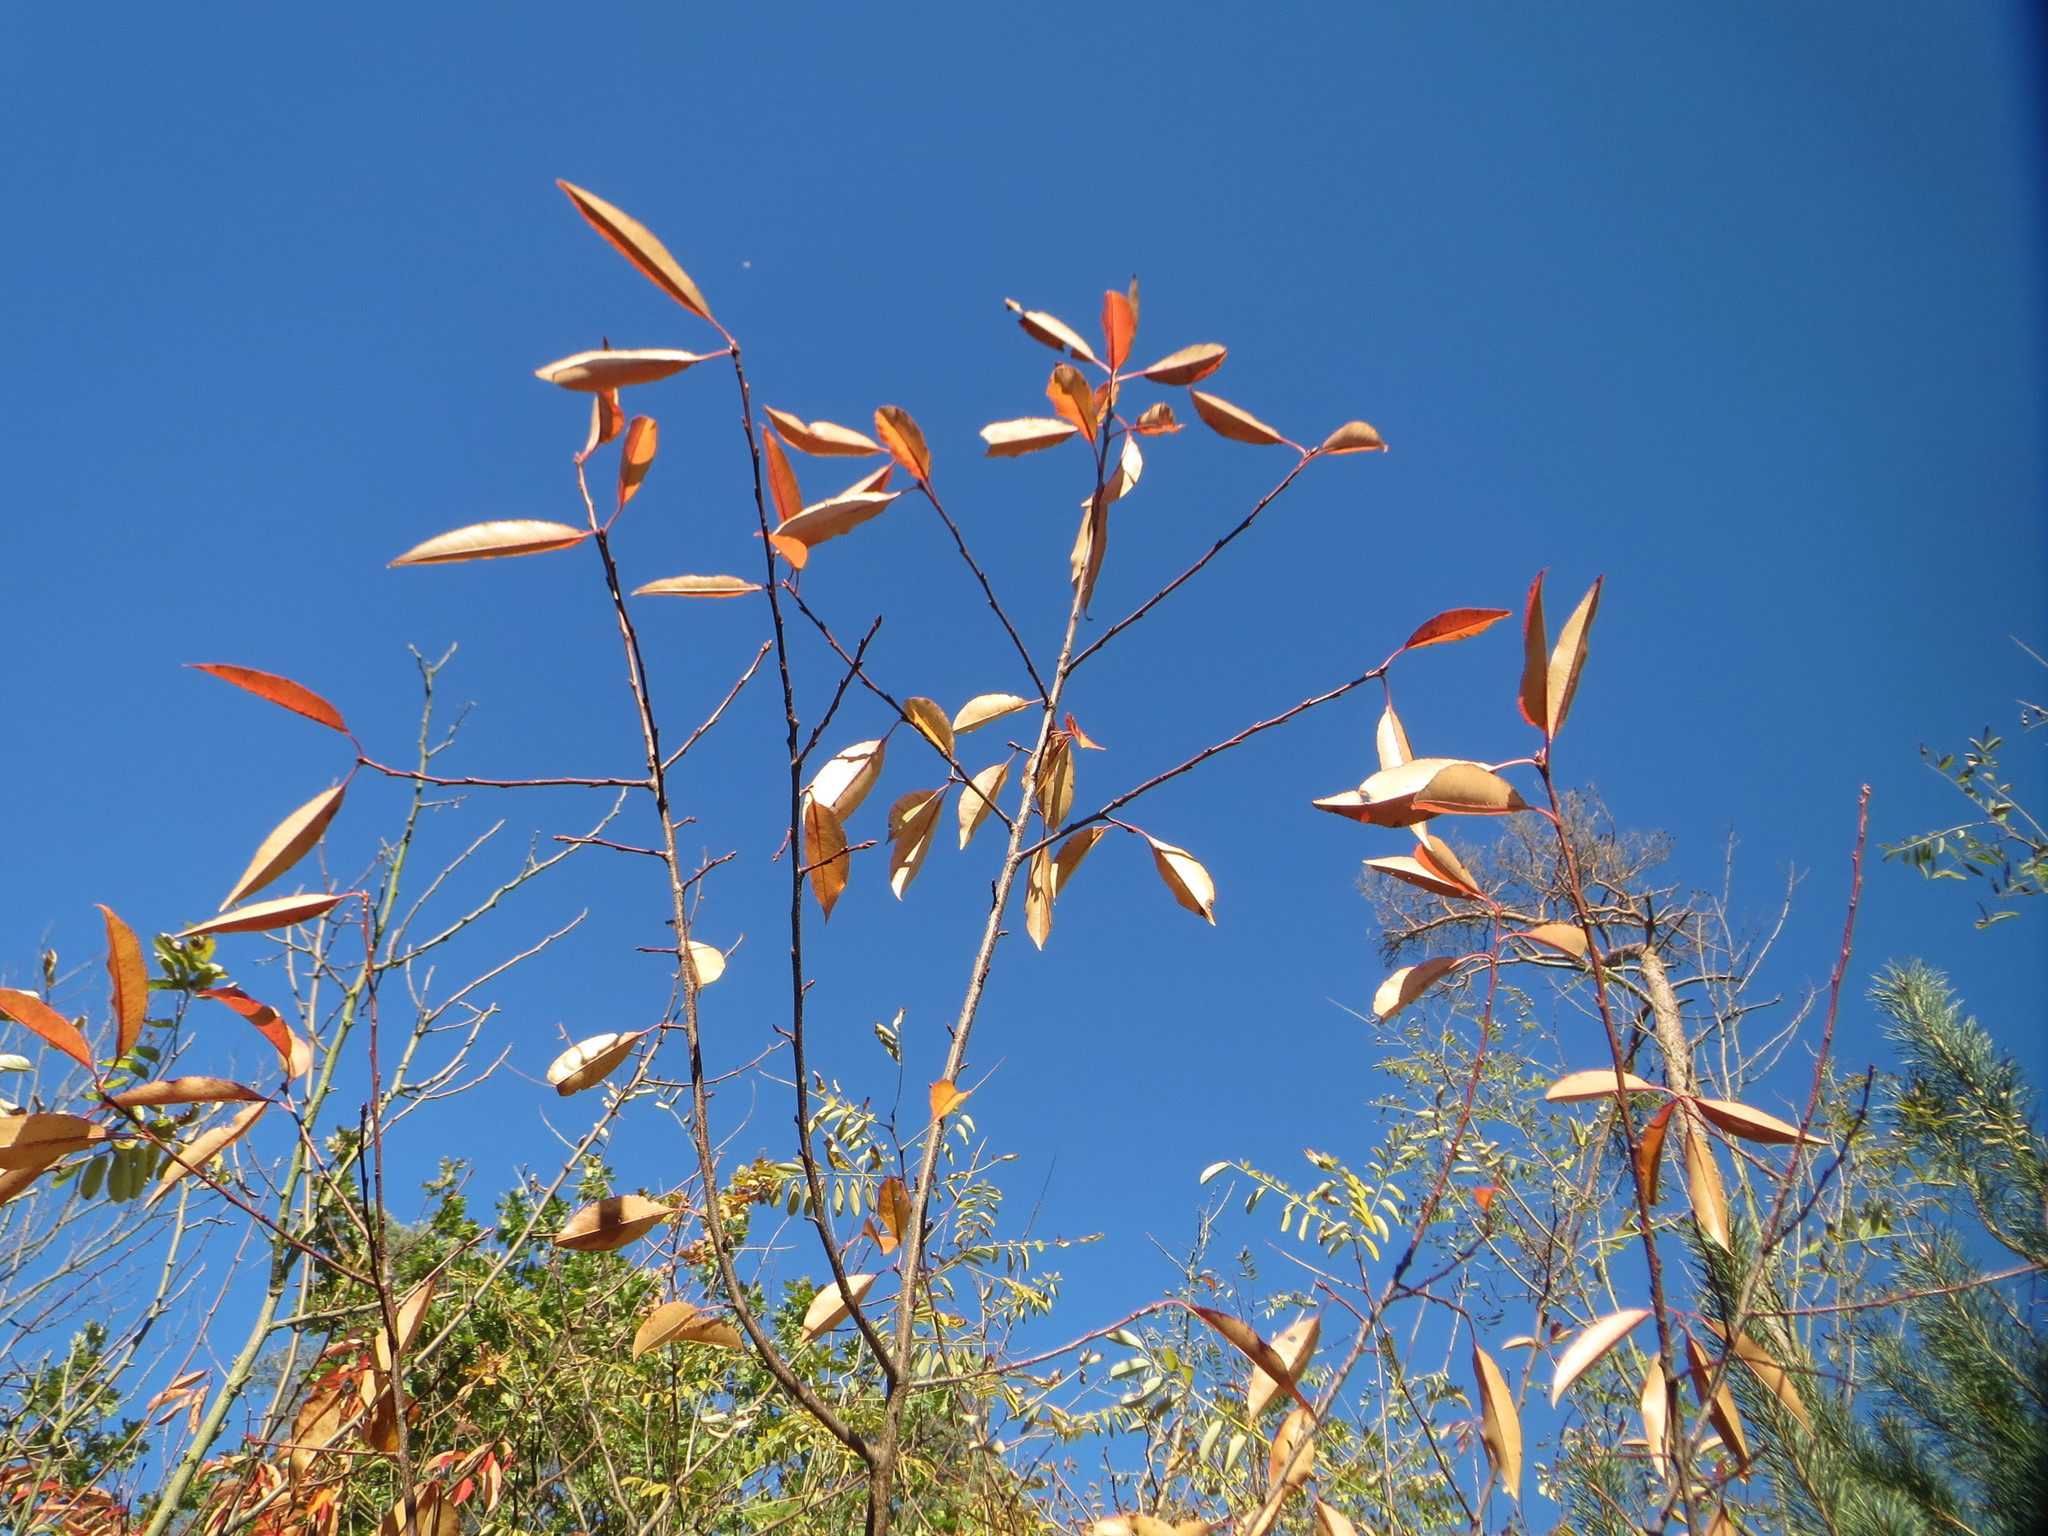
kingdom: Plantae
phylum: Tracheophyta
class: Magnoliopsida
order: Rosales
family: Rosaceae
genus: Prunus
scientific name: Prunus serotina
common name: Black cherry
